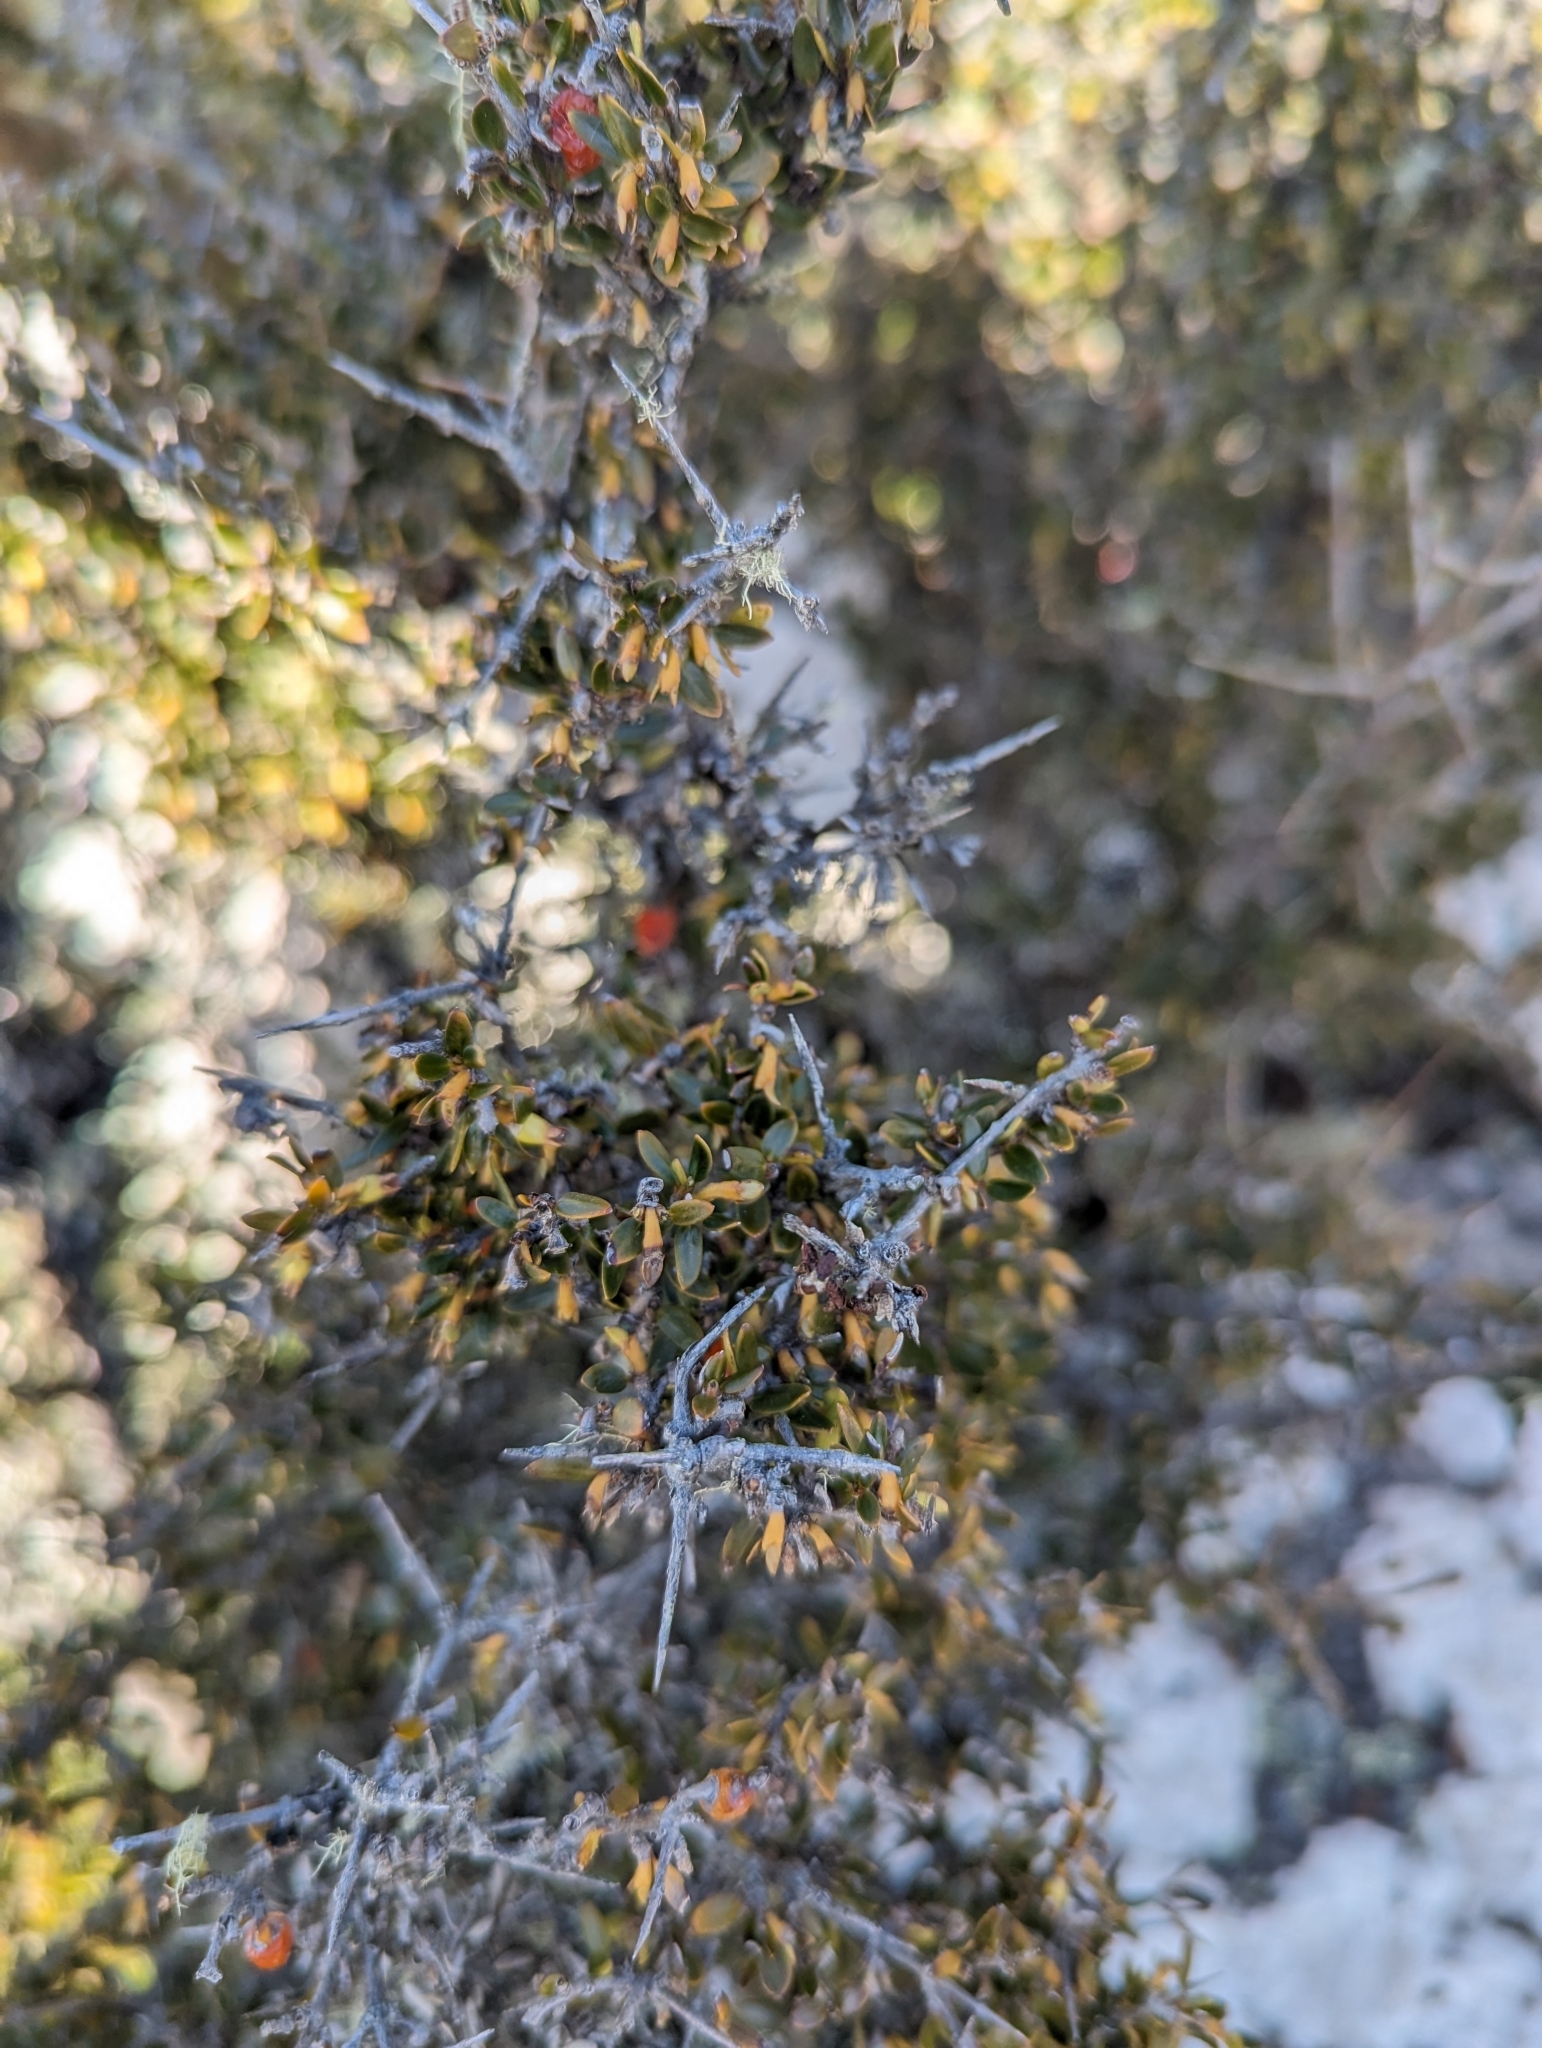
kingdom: Plantae
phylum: Tracheophyta
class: Magnoliopsida
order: Gentianales
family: Rubiaceae
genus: Coprosma
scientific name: Coprosma nitida
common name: Shining coprosma
